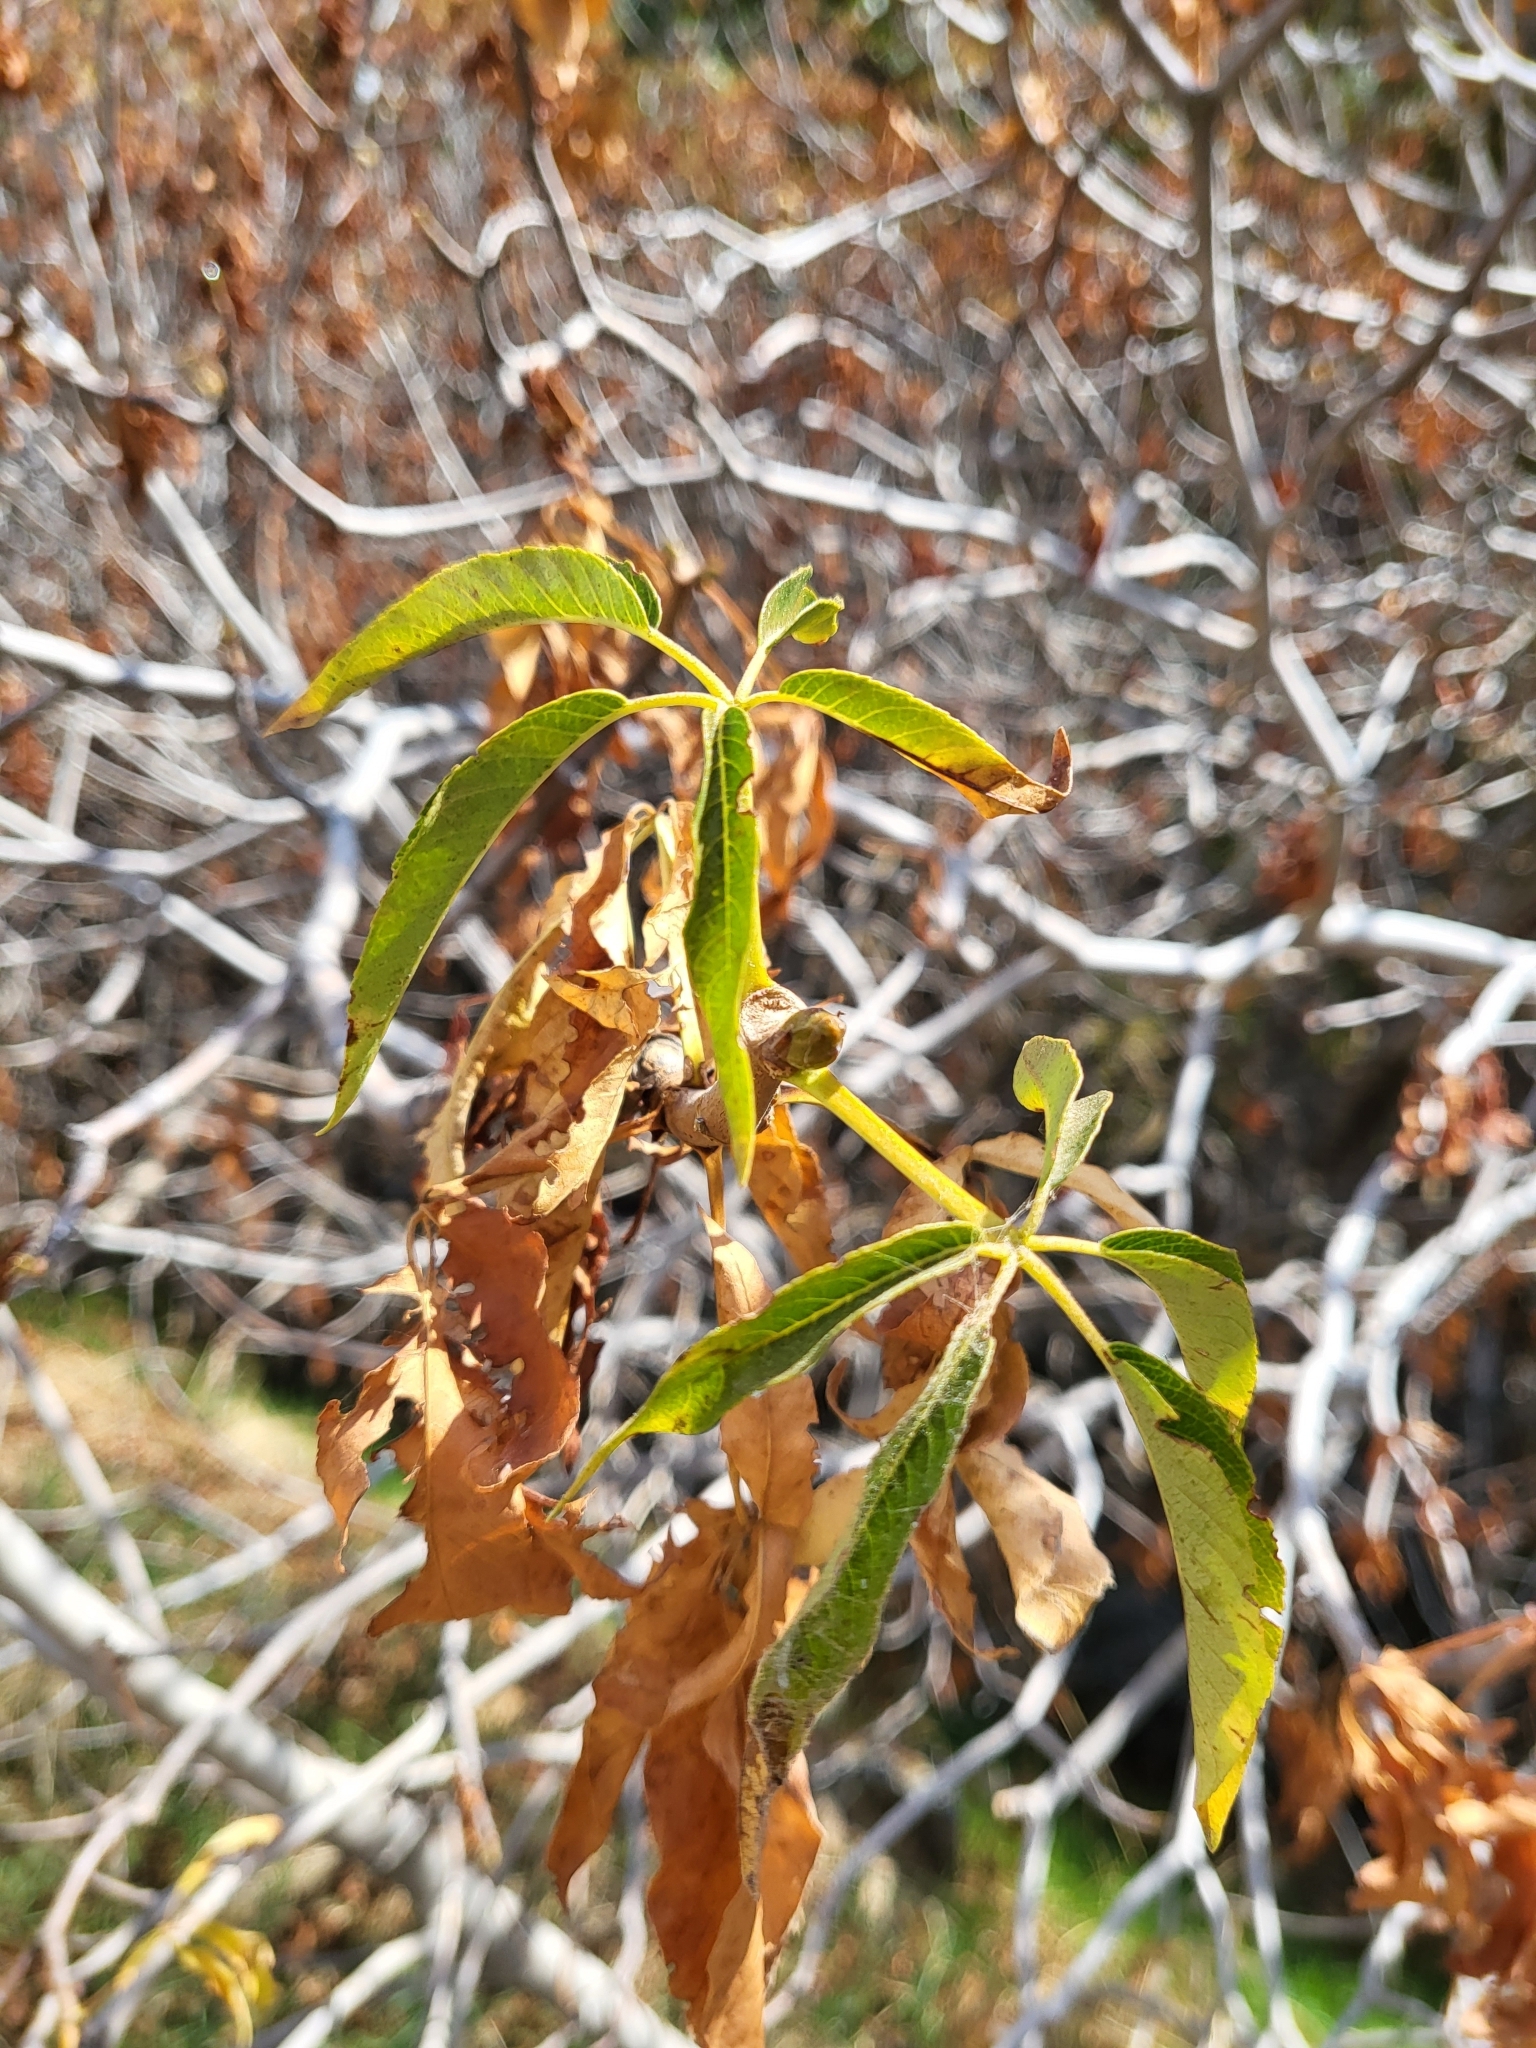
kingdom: Plantae
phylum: Tracheophyta
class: Magnoliopsida
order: Sapindales
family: Sapindaceae
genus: Aesculus
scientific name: Aesculus californica
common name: California buckeye
